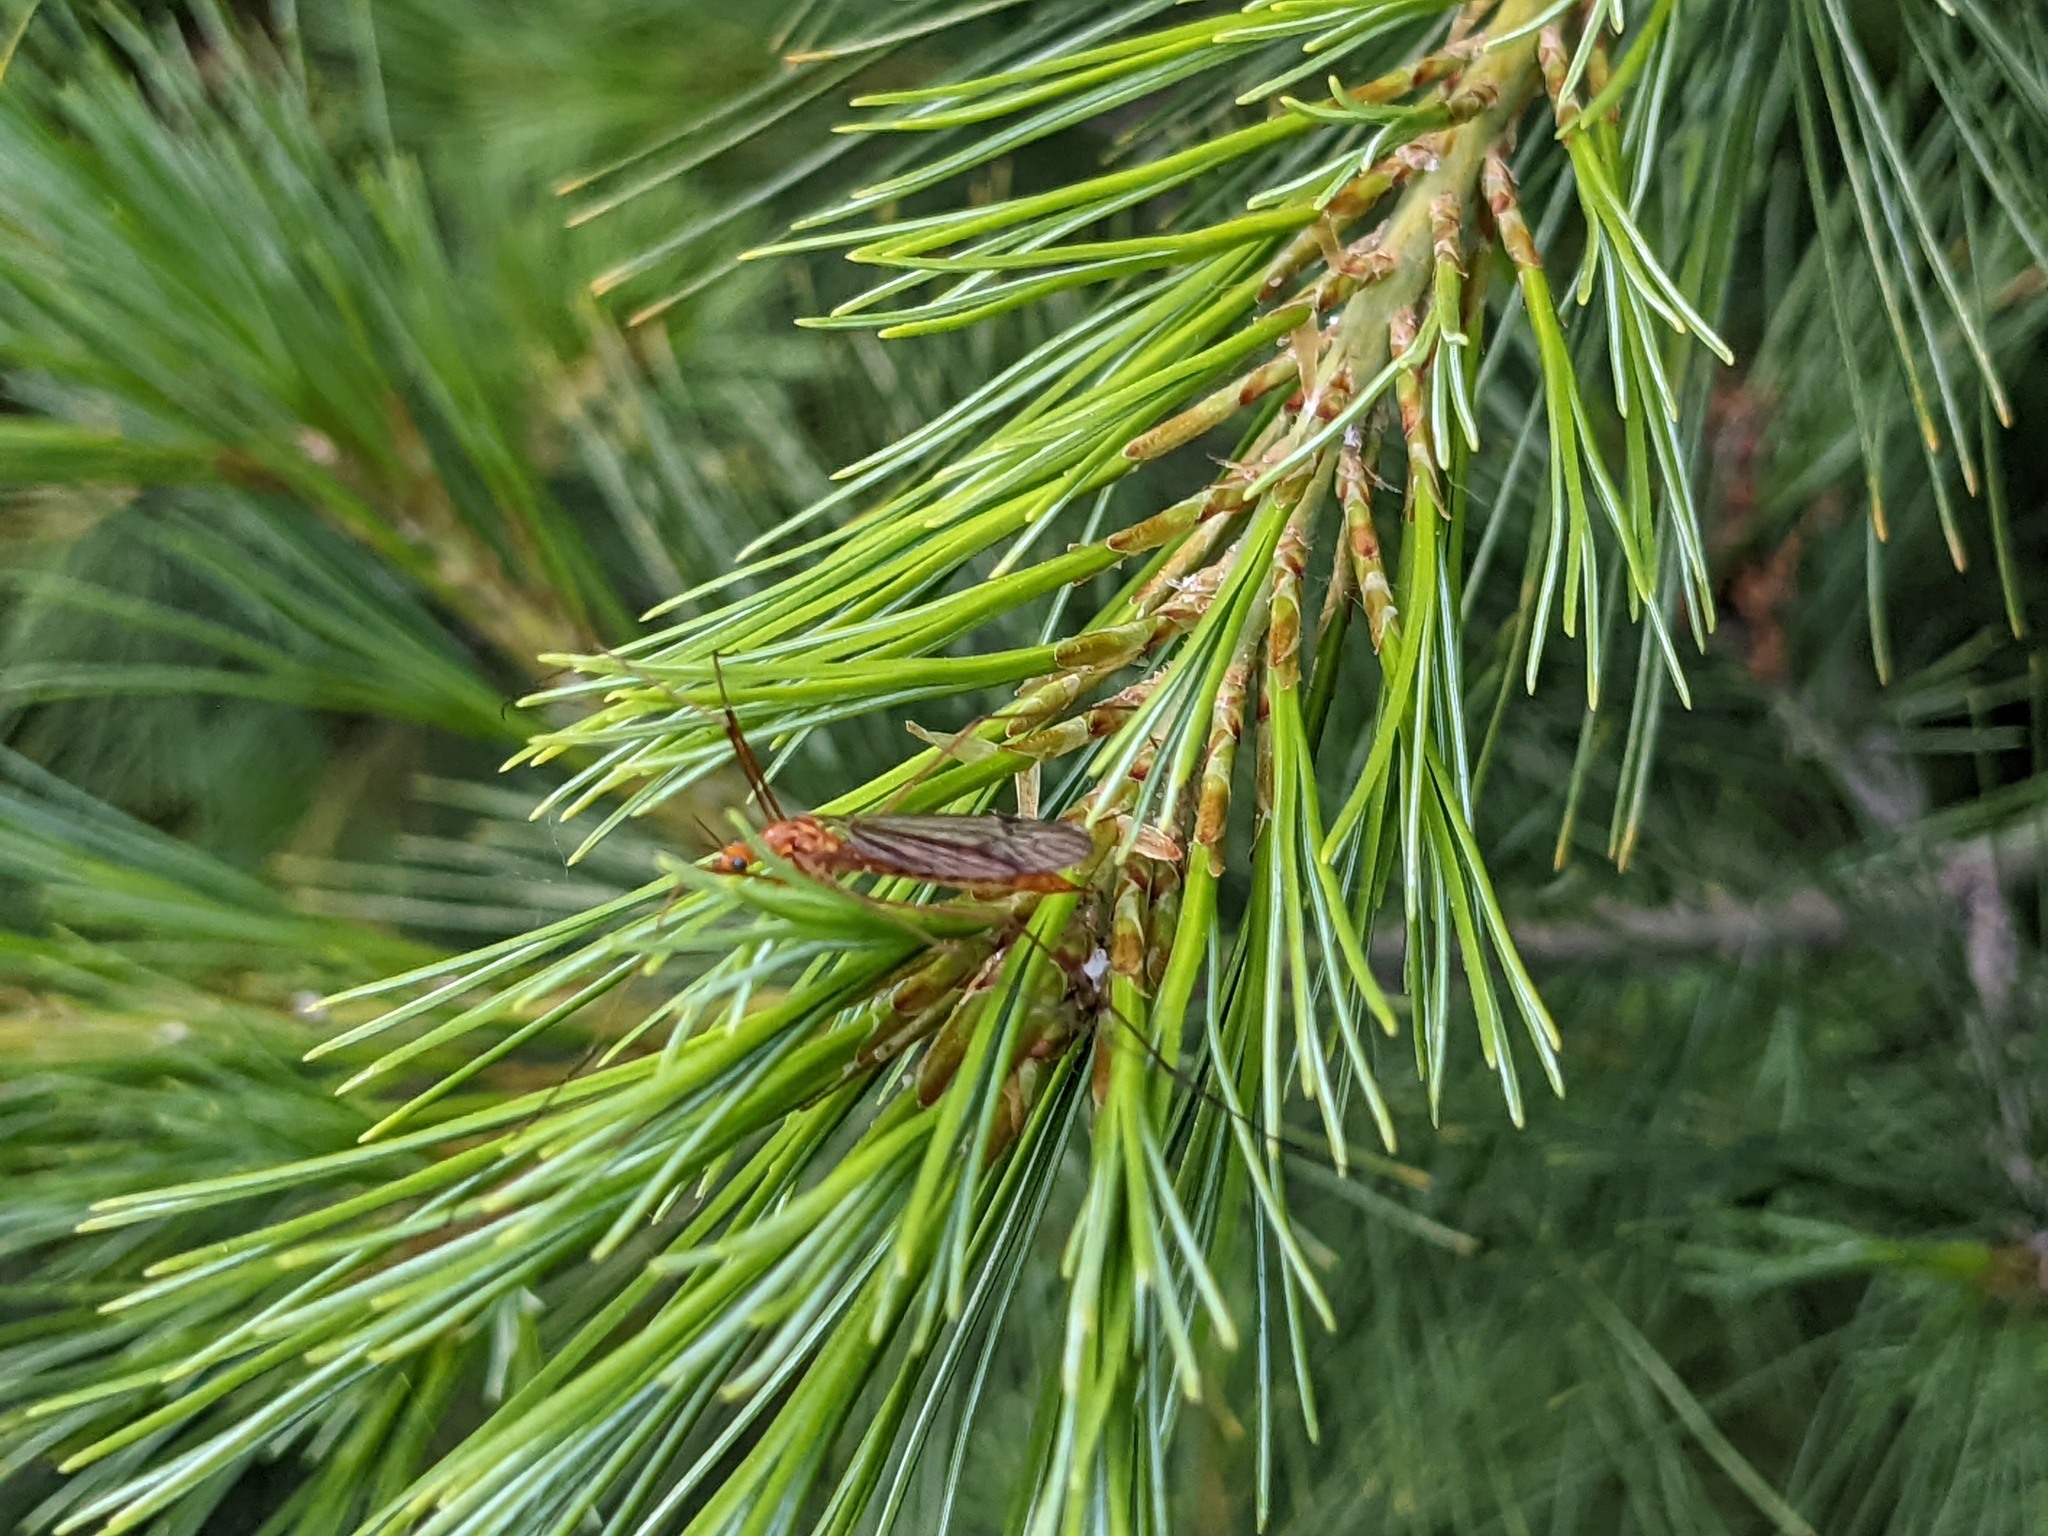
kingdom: Animalia
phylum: Arthropoda
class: Insecta
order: Diptera
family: Tipulidae
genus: Nephrotoma
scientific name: Nephrotoma ferruginea
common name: Ferruginous tiger crane fly
